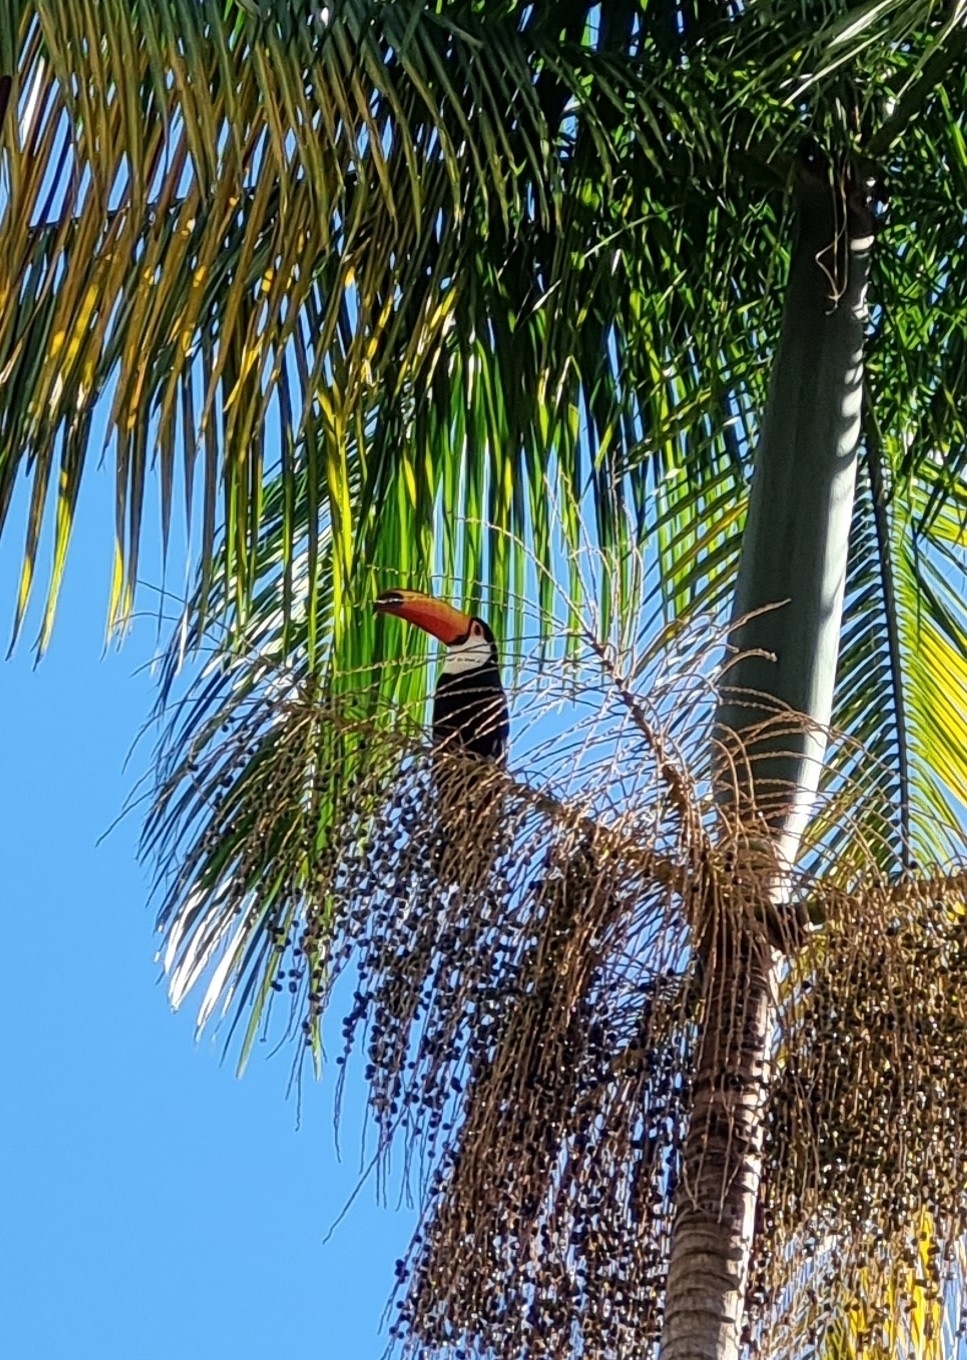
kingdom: Animalia
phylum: Chordata
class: Aves
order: Piciformes
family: Ramphastidae
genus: Ramphastos
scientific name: Ramphastos toco
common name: Toco toucan
